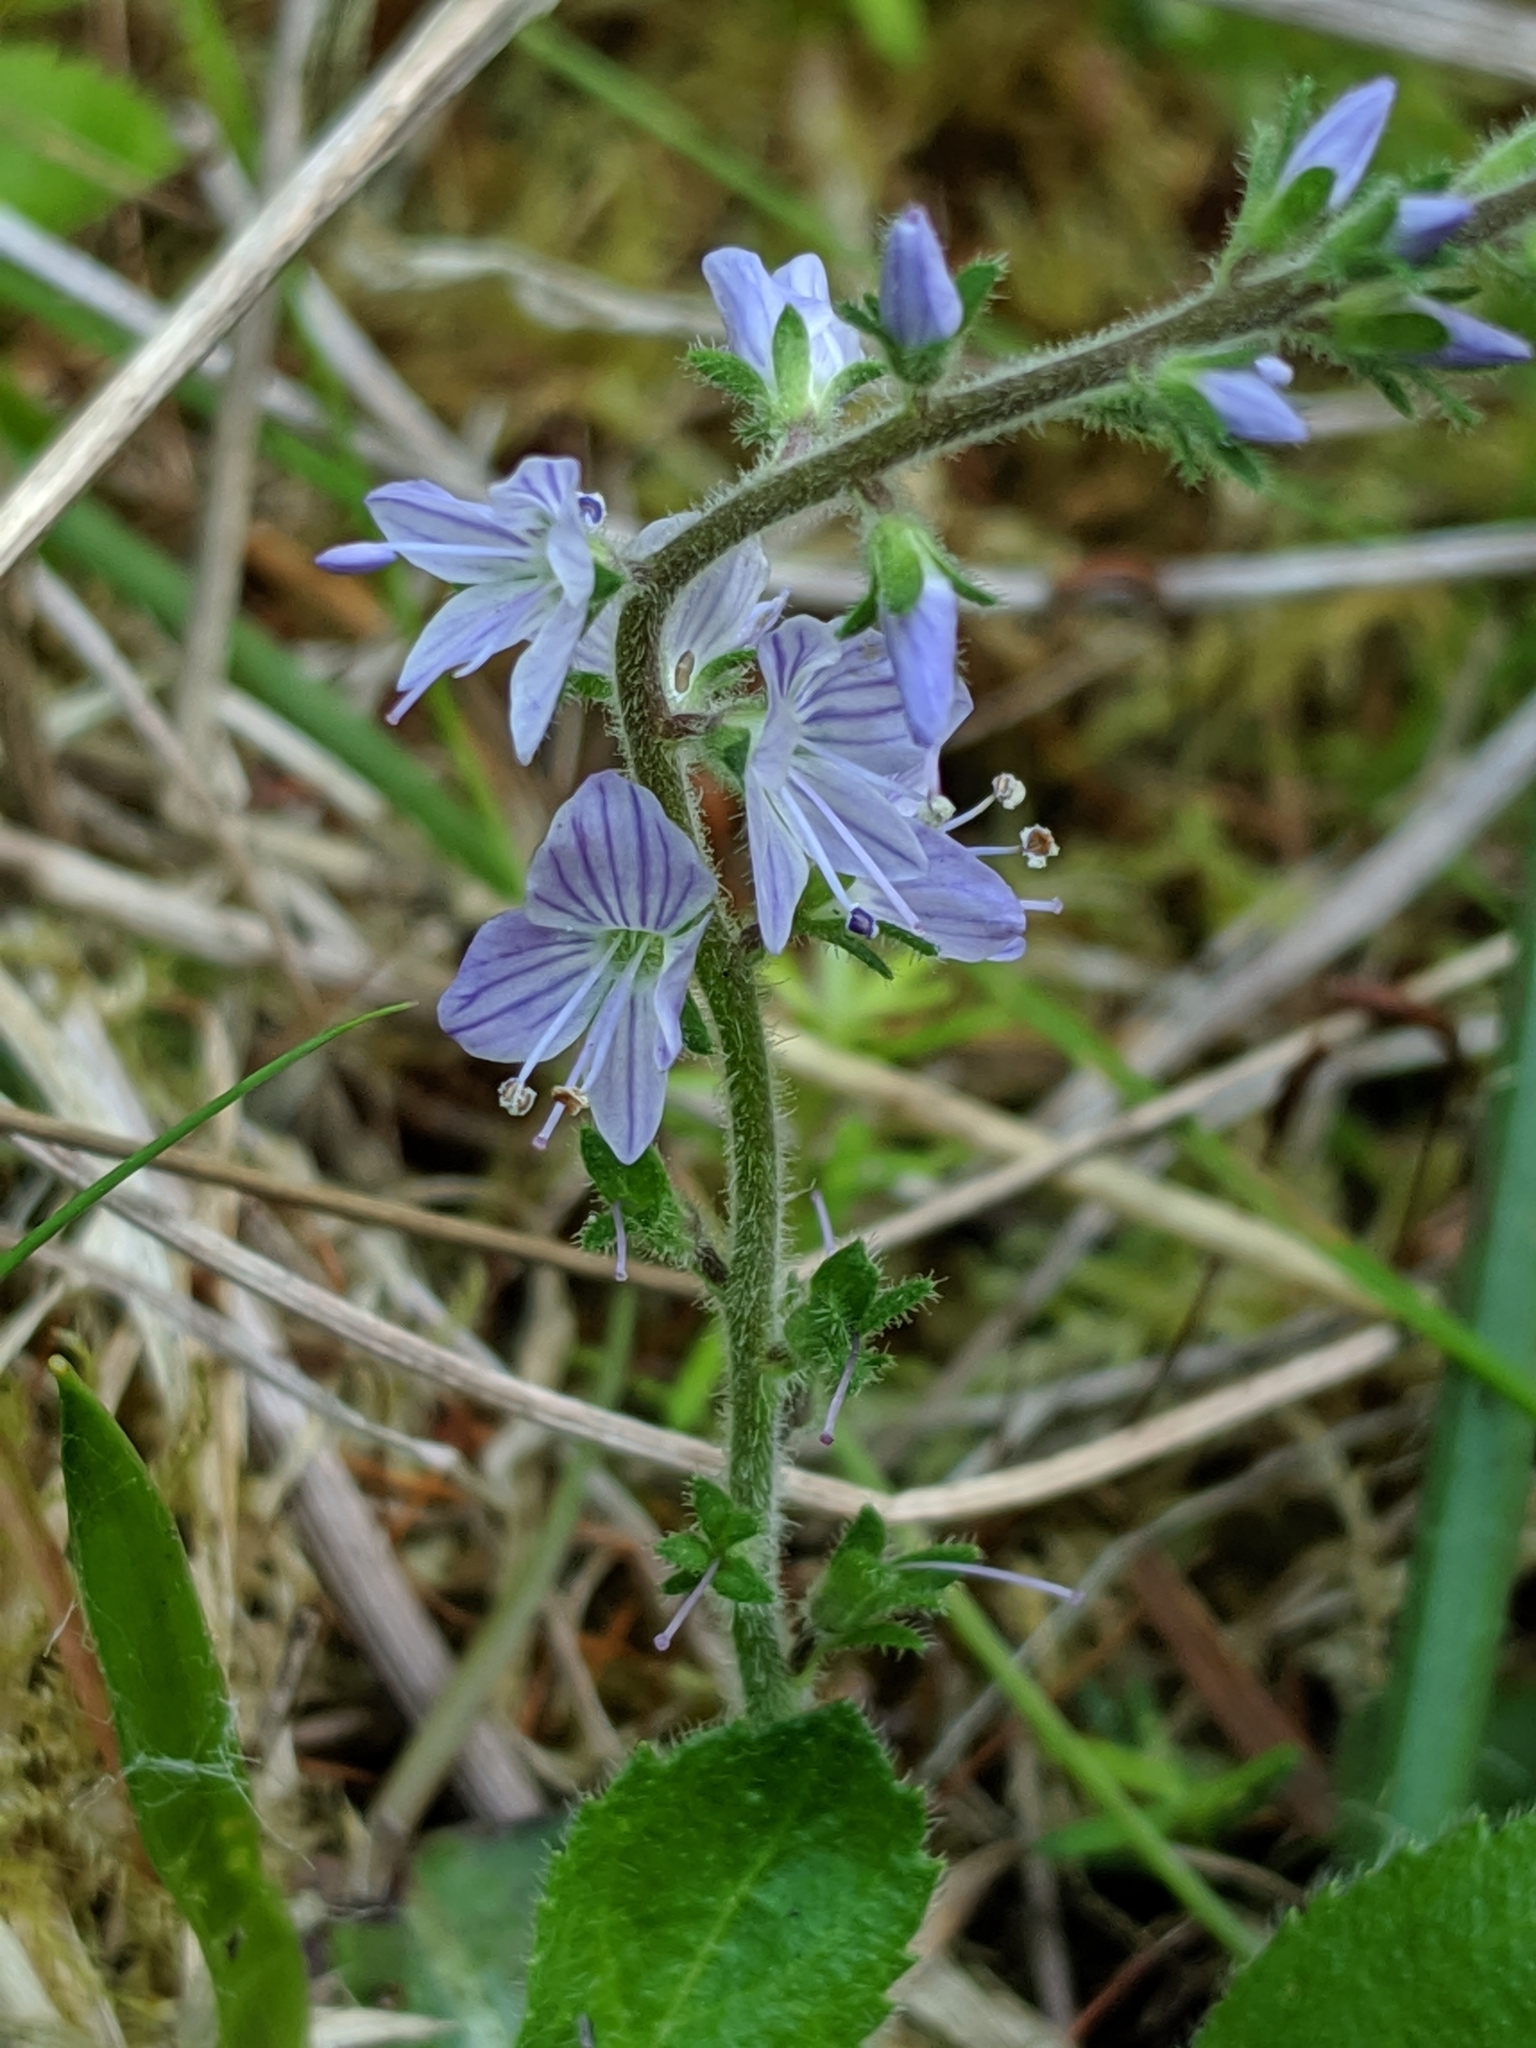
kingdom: Plantae
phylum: Tracheophyta
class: Magnoliopsida
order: Lamiales
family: Plantaginaceae
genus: Veronica
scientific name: Veronica officinalis
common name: Common speedwell
